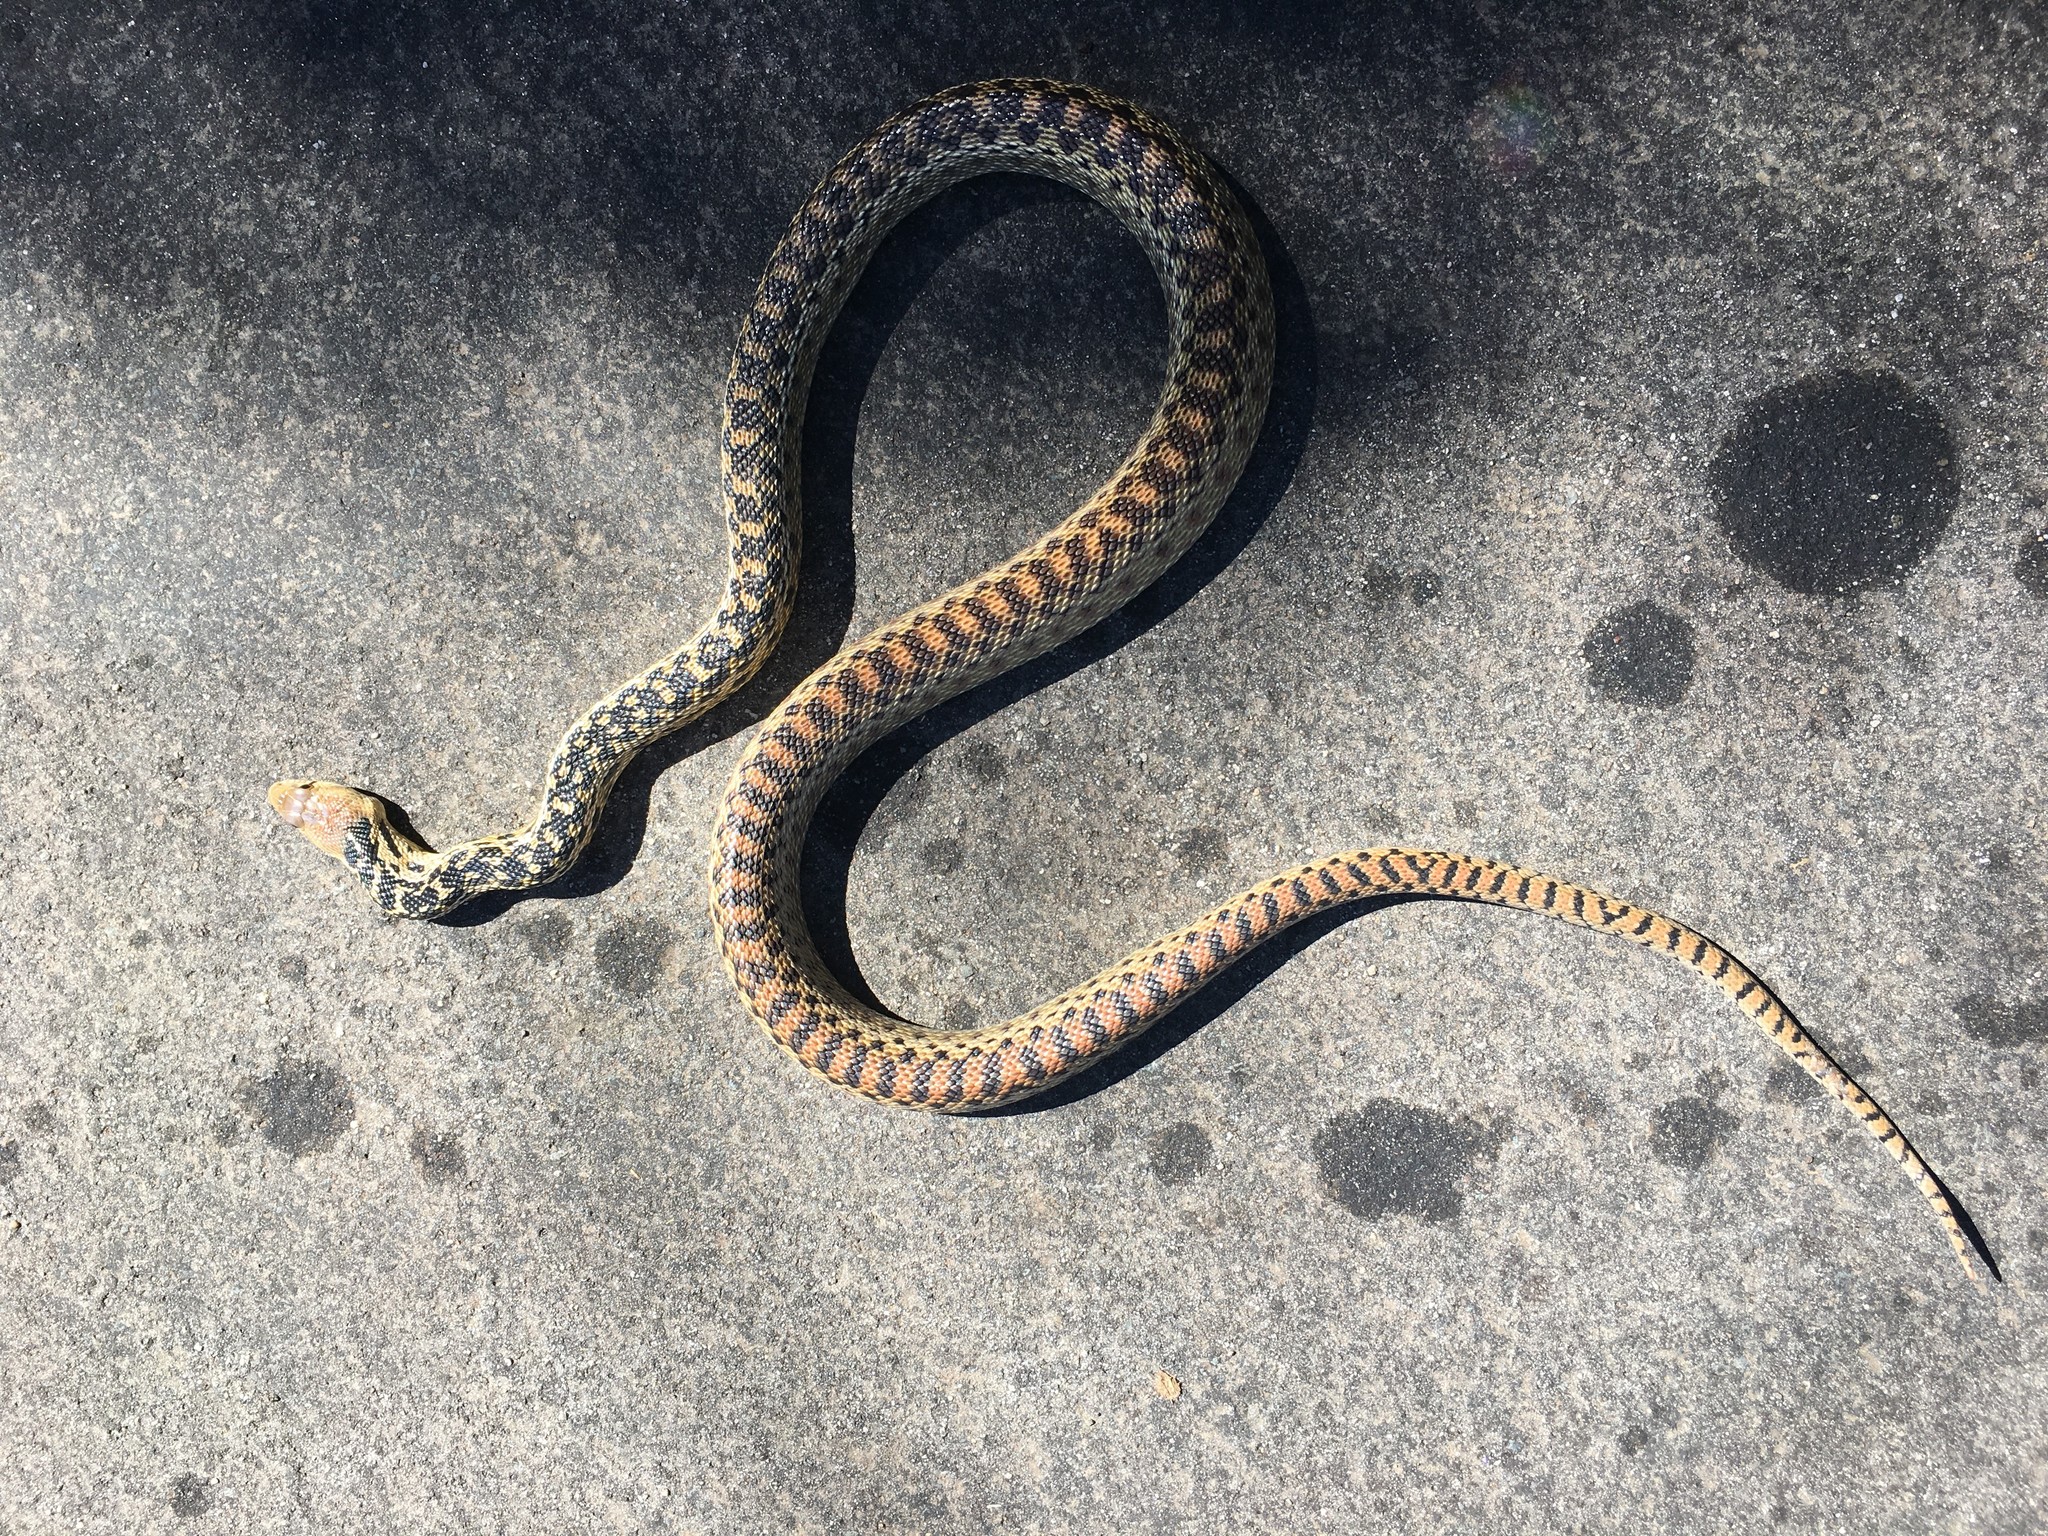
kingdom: Animalia
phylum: Chordata
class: Squamata
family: Colubridae
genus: Pituophis
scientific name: Pituophis catenifer
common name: Gopher snake
